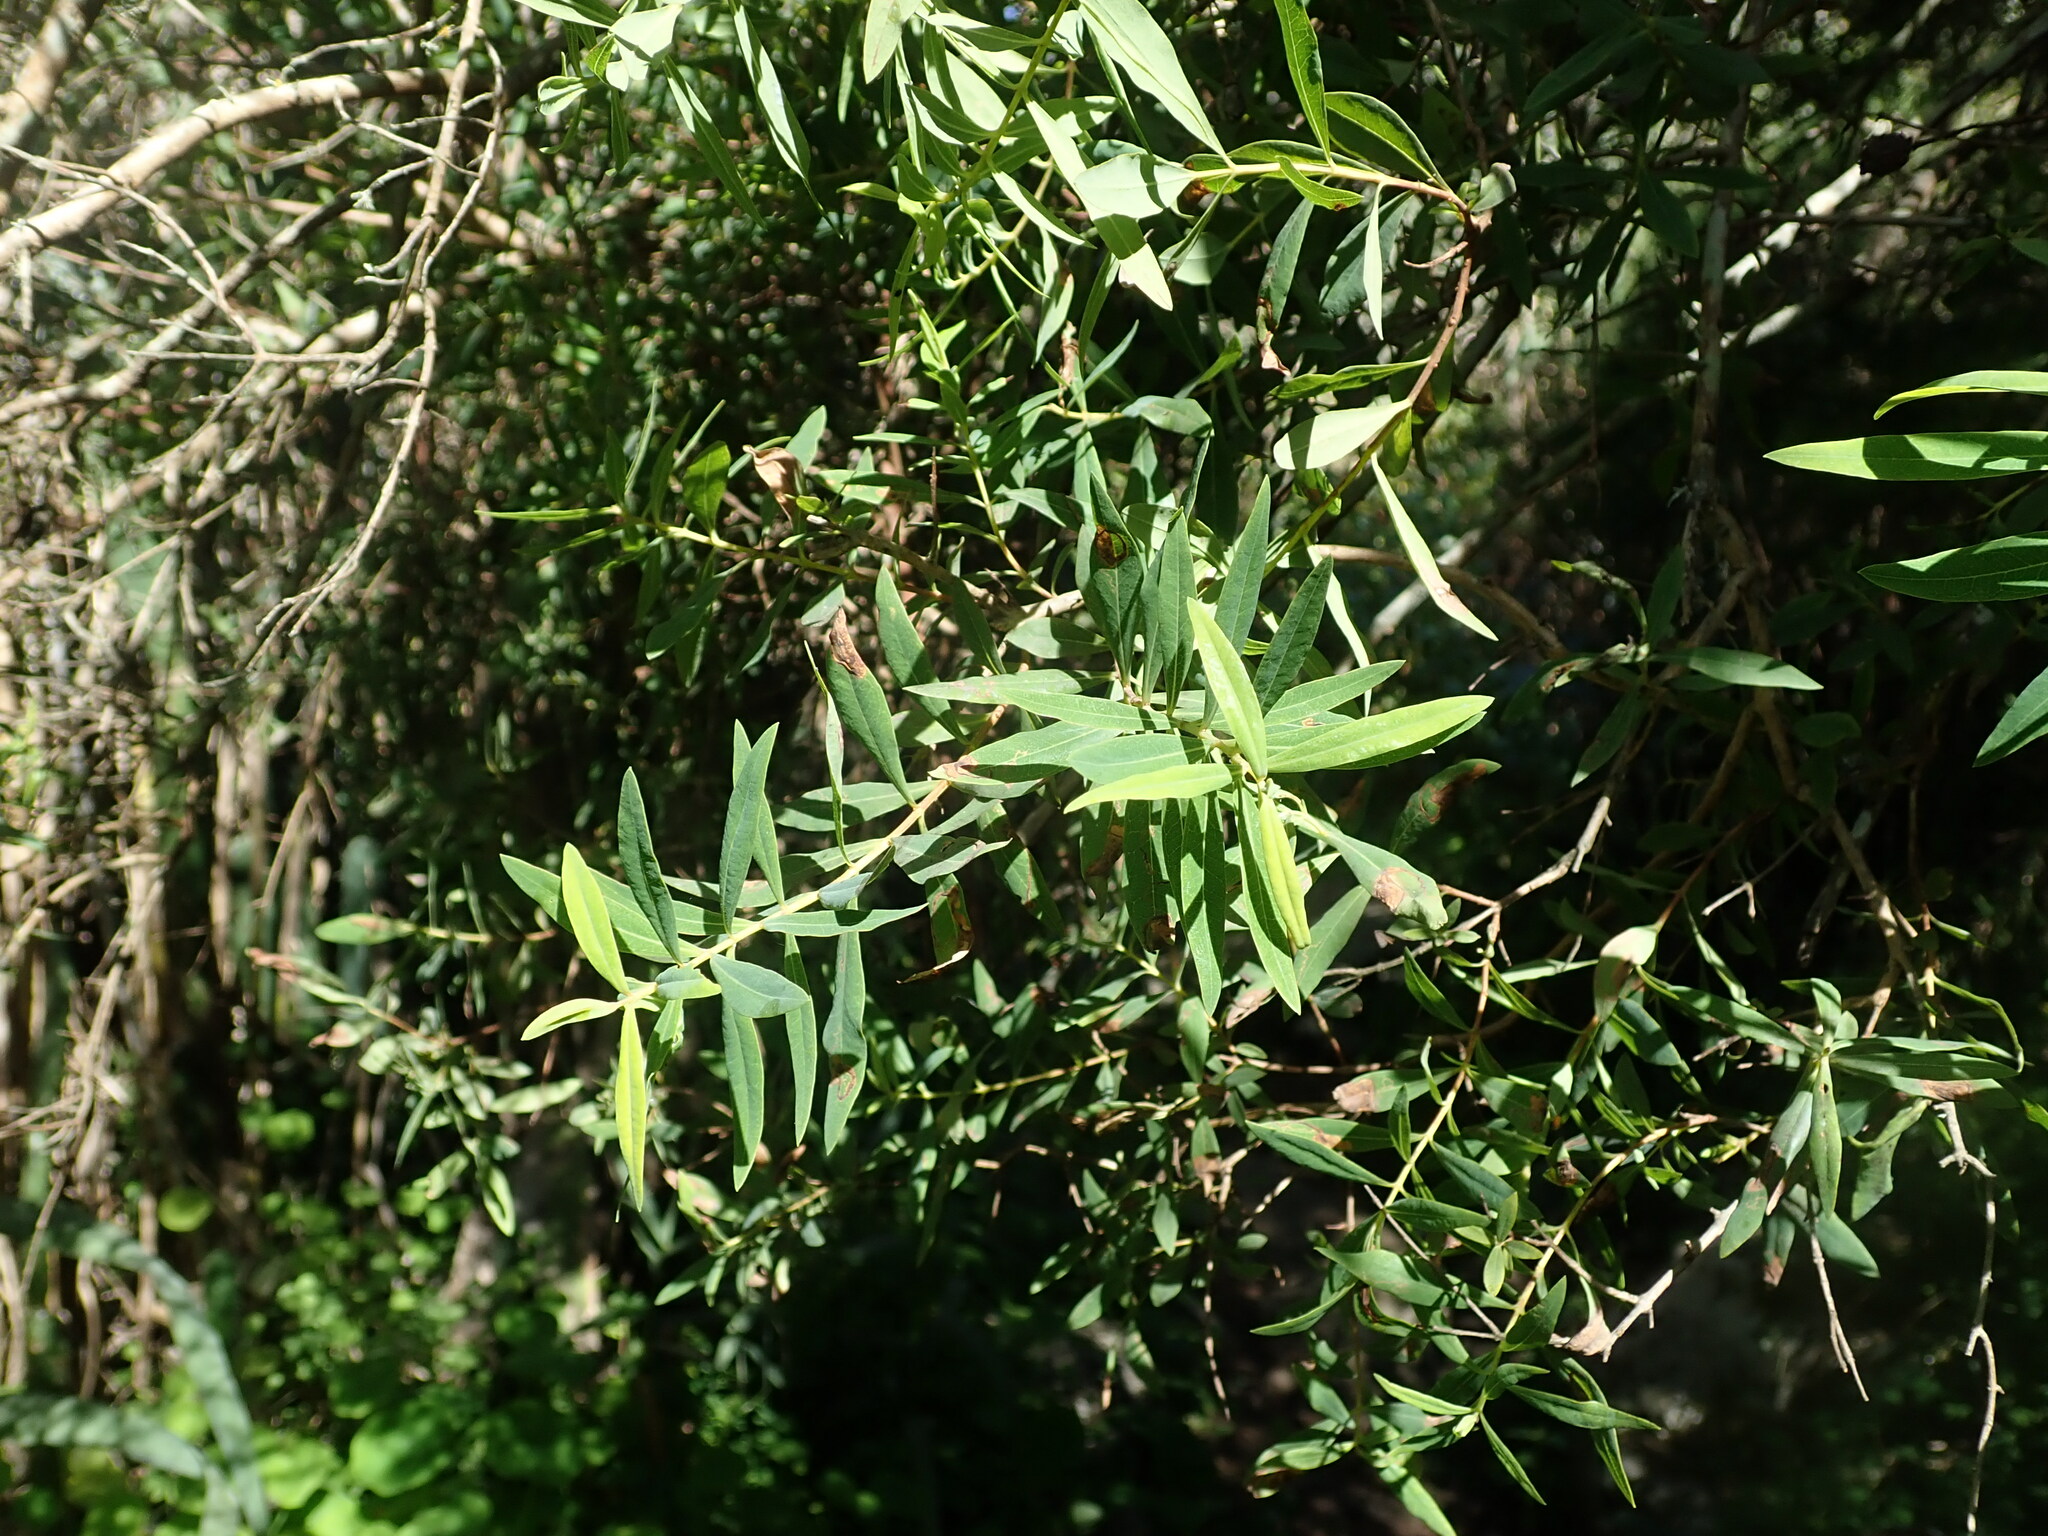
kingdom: Plantae
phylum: Tracheophyta
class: Magnoliopsida
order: Malpighiales
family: Hypericaceae
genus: Hypericum
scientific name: Hypericum canariense
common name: Canary island st. johnswort
